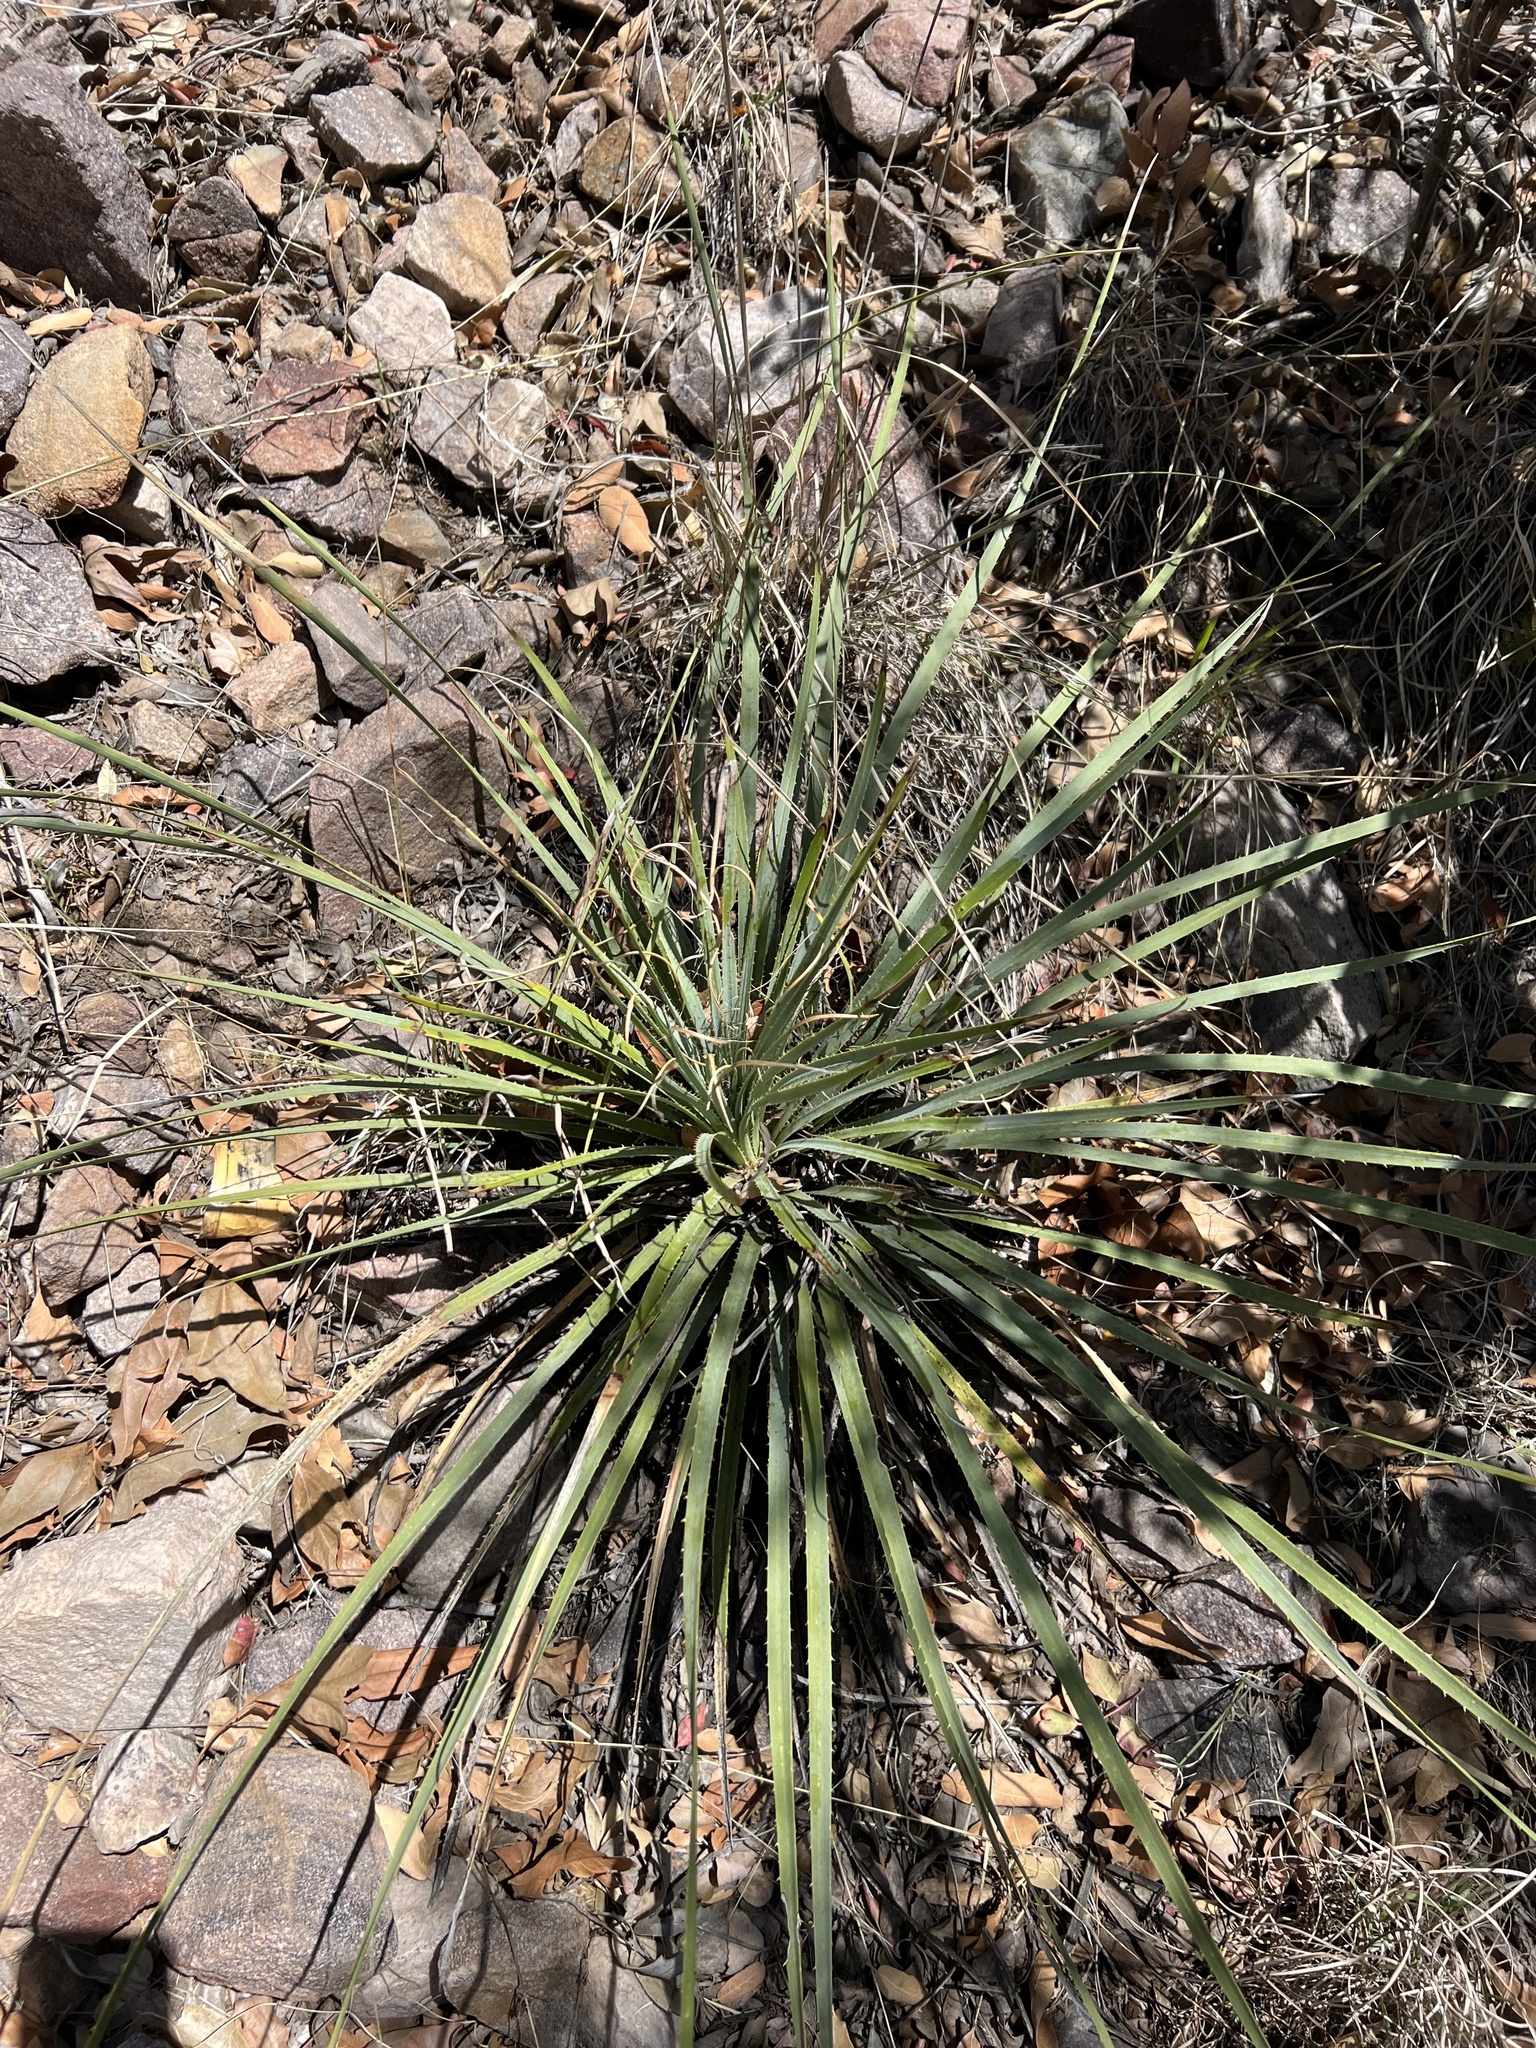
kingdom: Plantae
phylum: Tracheophyta
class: Liliopsida
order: Asparagales
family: Asparagaceae
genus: Dasylirion
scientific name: Dasylirion wheeleri
